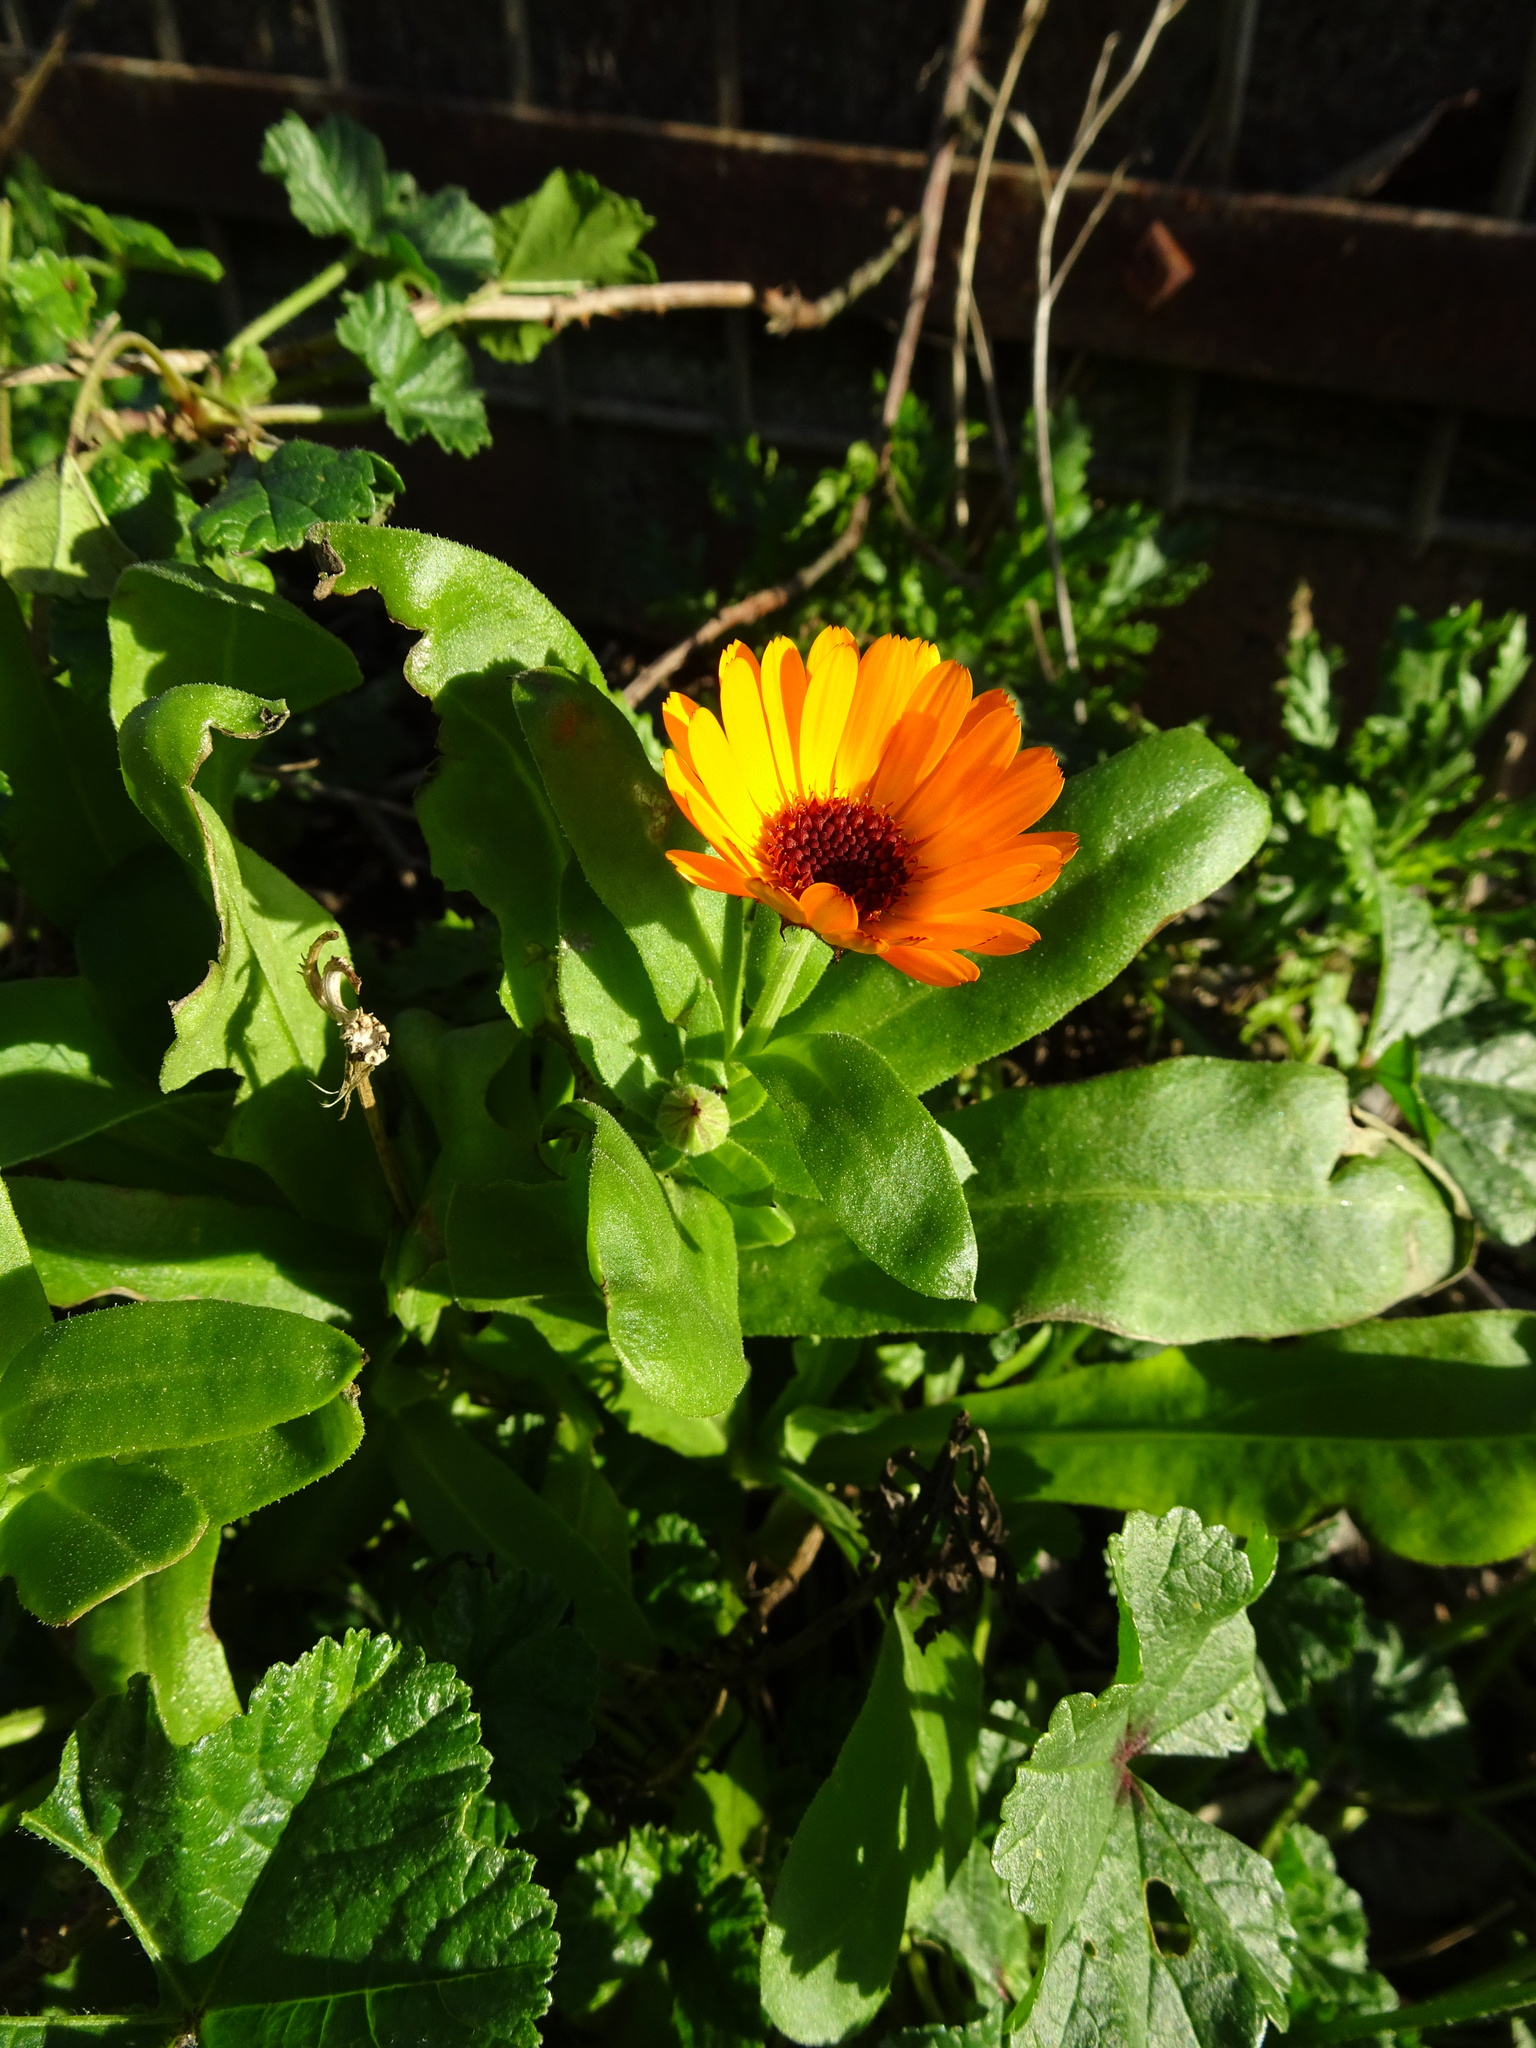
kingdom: Plantae
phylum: Tracheophyta
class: Magnoliopsida
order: Asterales
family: Asteraceae
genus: Calendula
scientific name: Calendula officinalis
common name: Pot marigold
